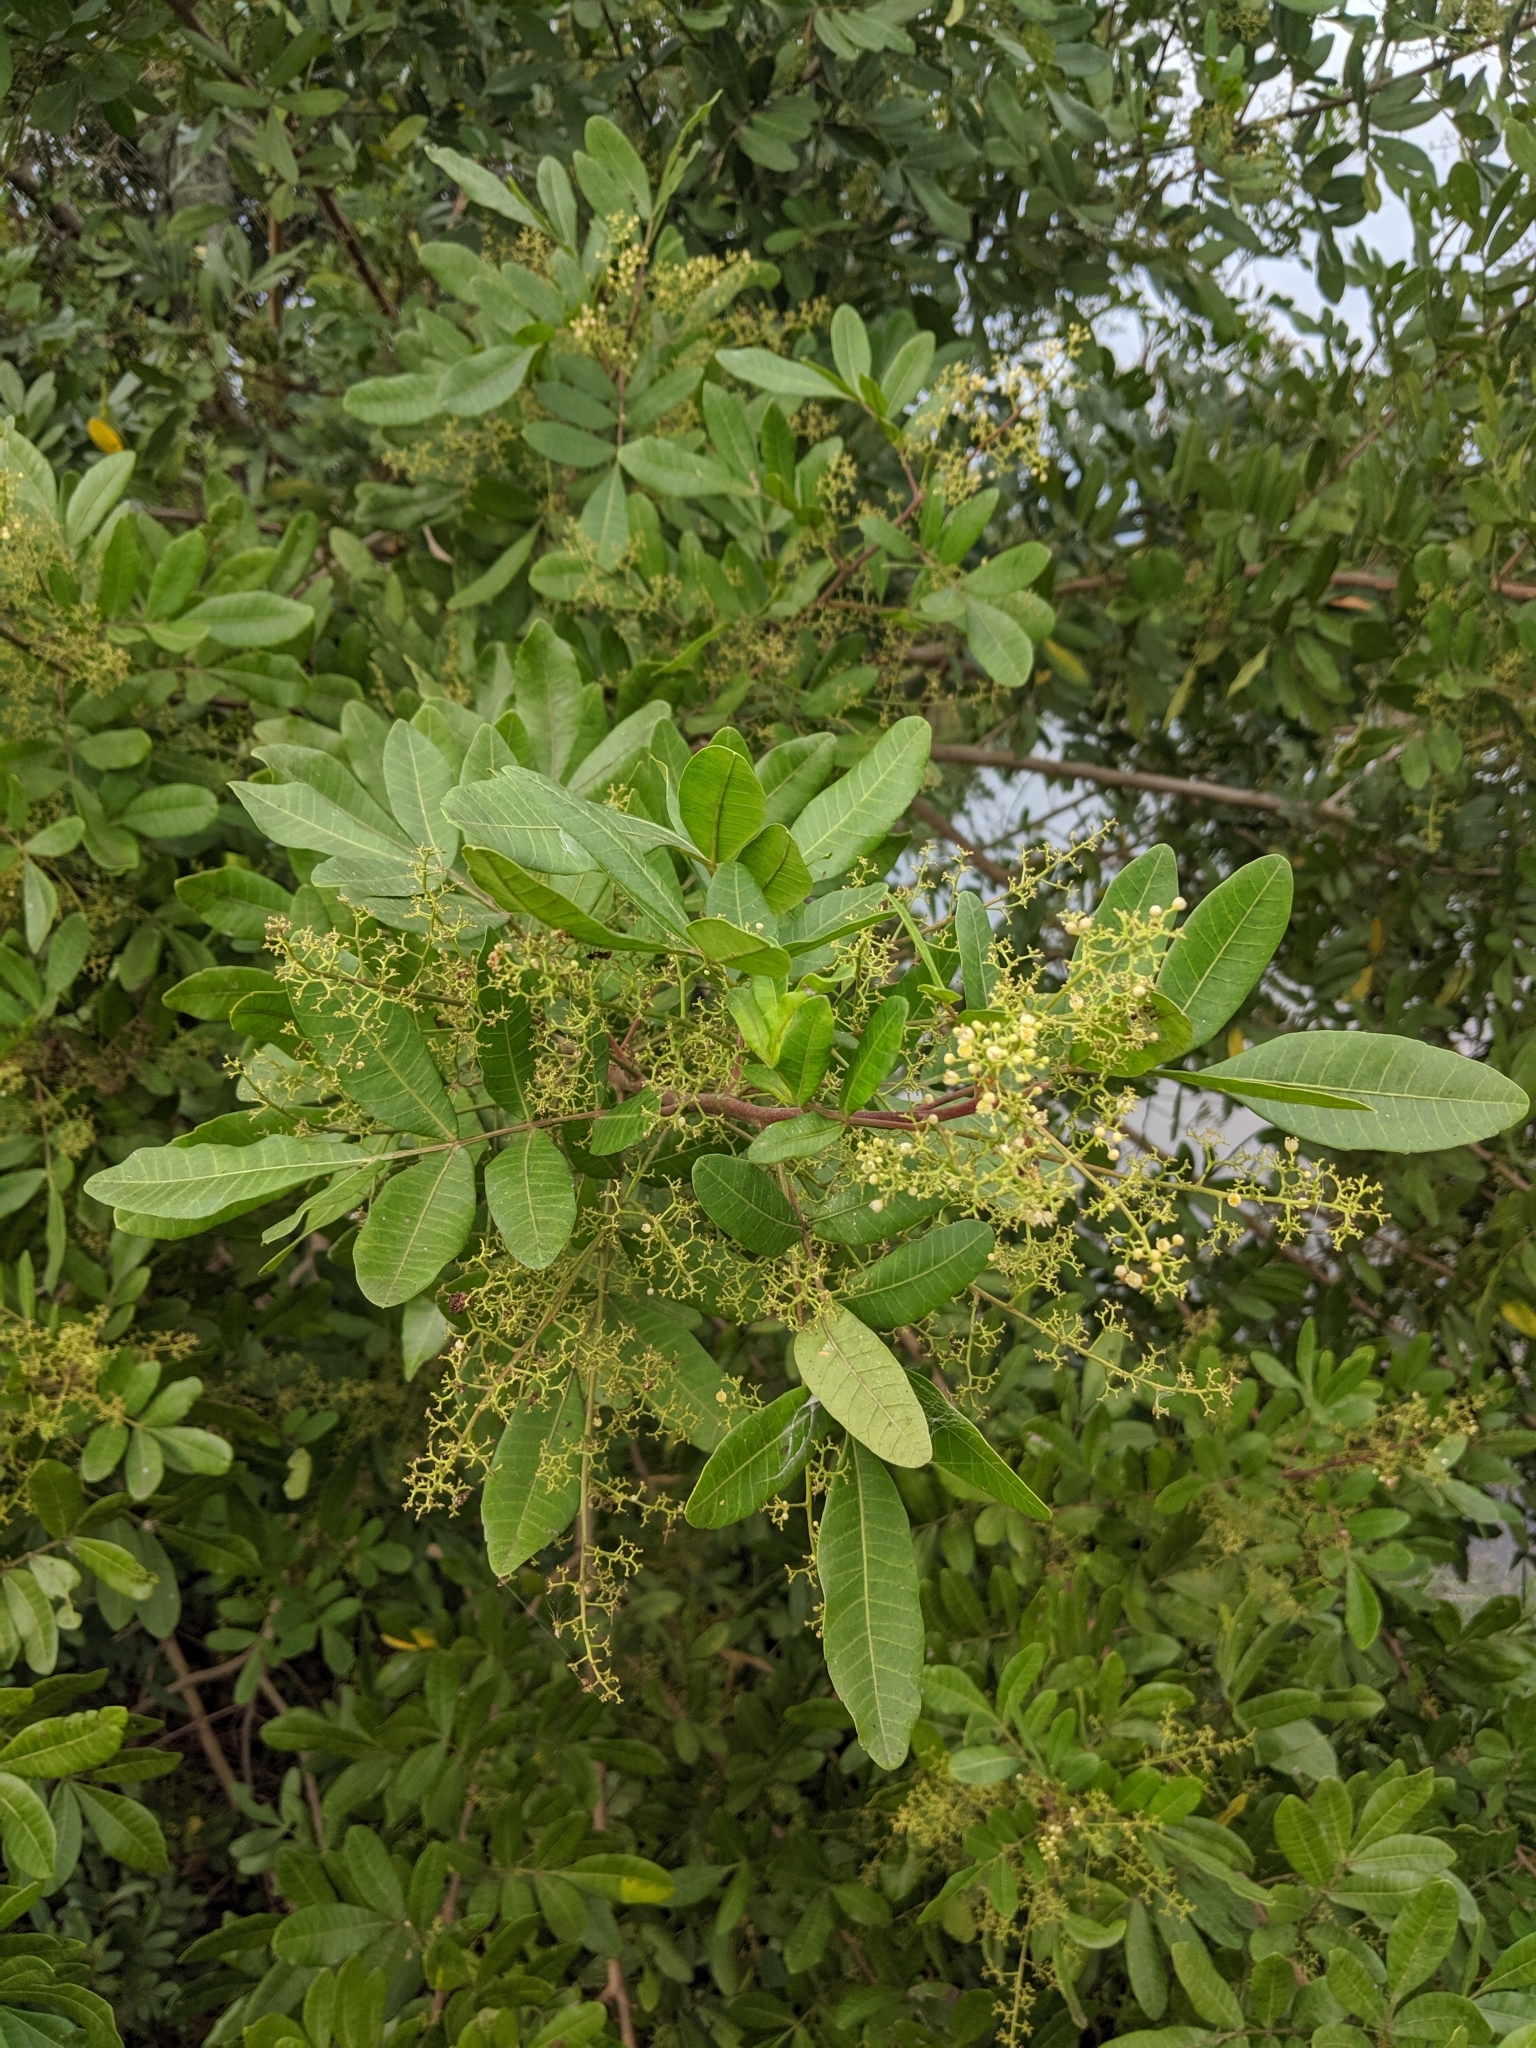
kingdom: Plantae
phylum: Tracheophyta
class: Magnoliopsida
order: Sapindales
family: Anacardiaceae
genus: Schinus
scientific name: Schinus terebinthifolia
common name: Brazilian peppertree
